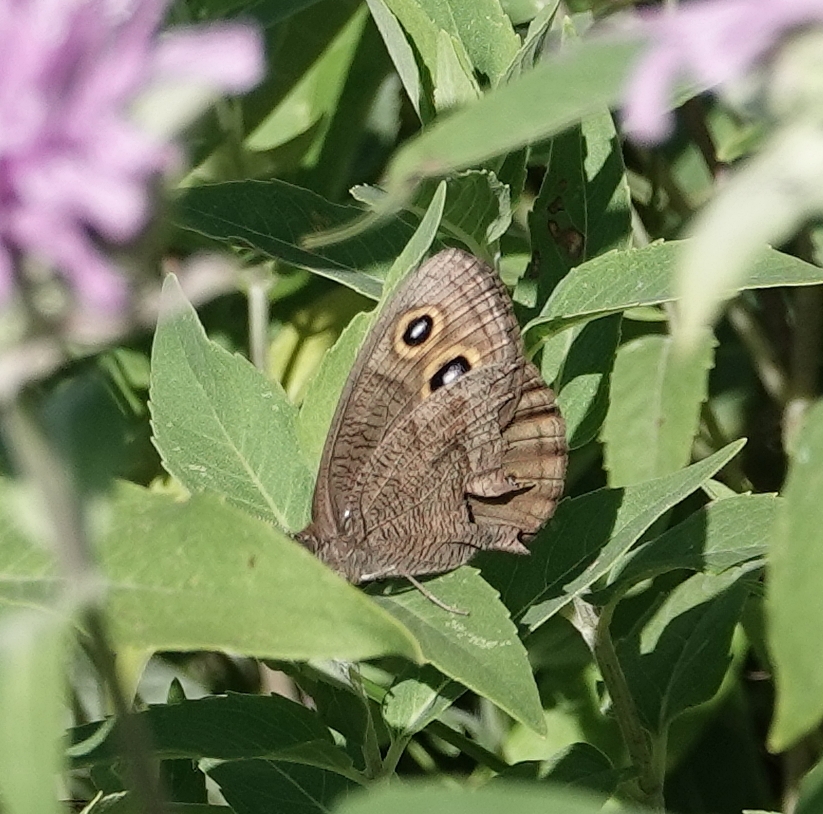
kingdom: Animalia
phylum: Arthropoda
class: Insecta
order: Lepidoptera
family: Nymphalidae
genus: Cercyonis
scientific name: Cercyonis pegala
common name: Common wood-nymph
